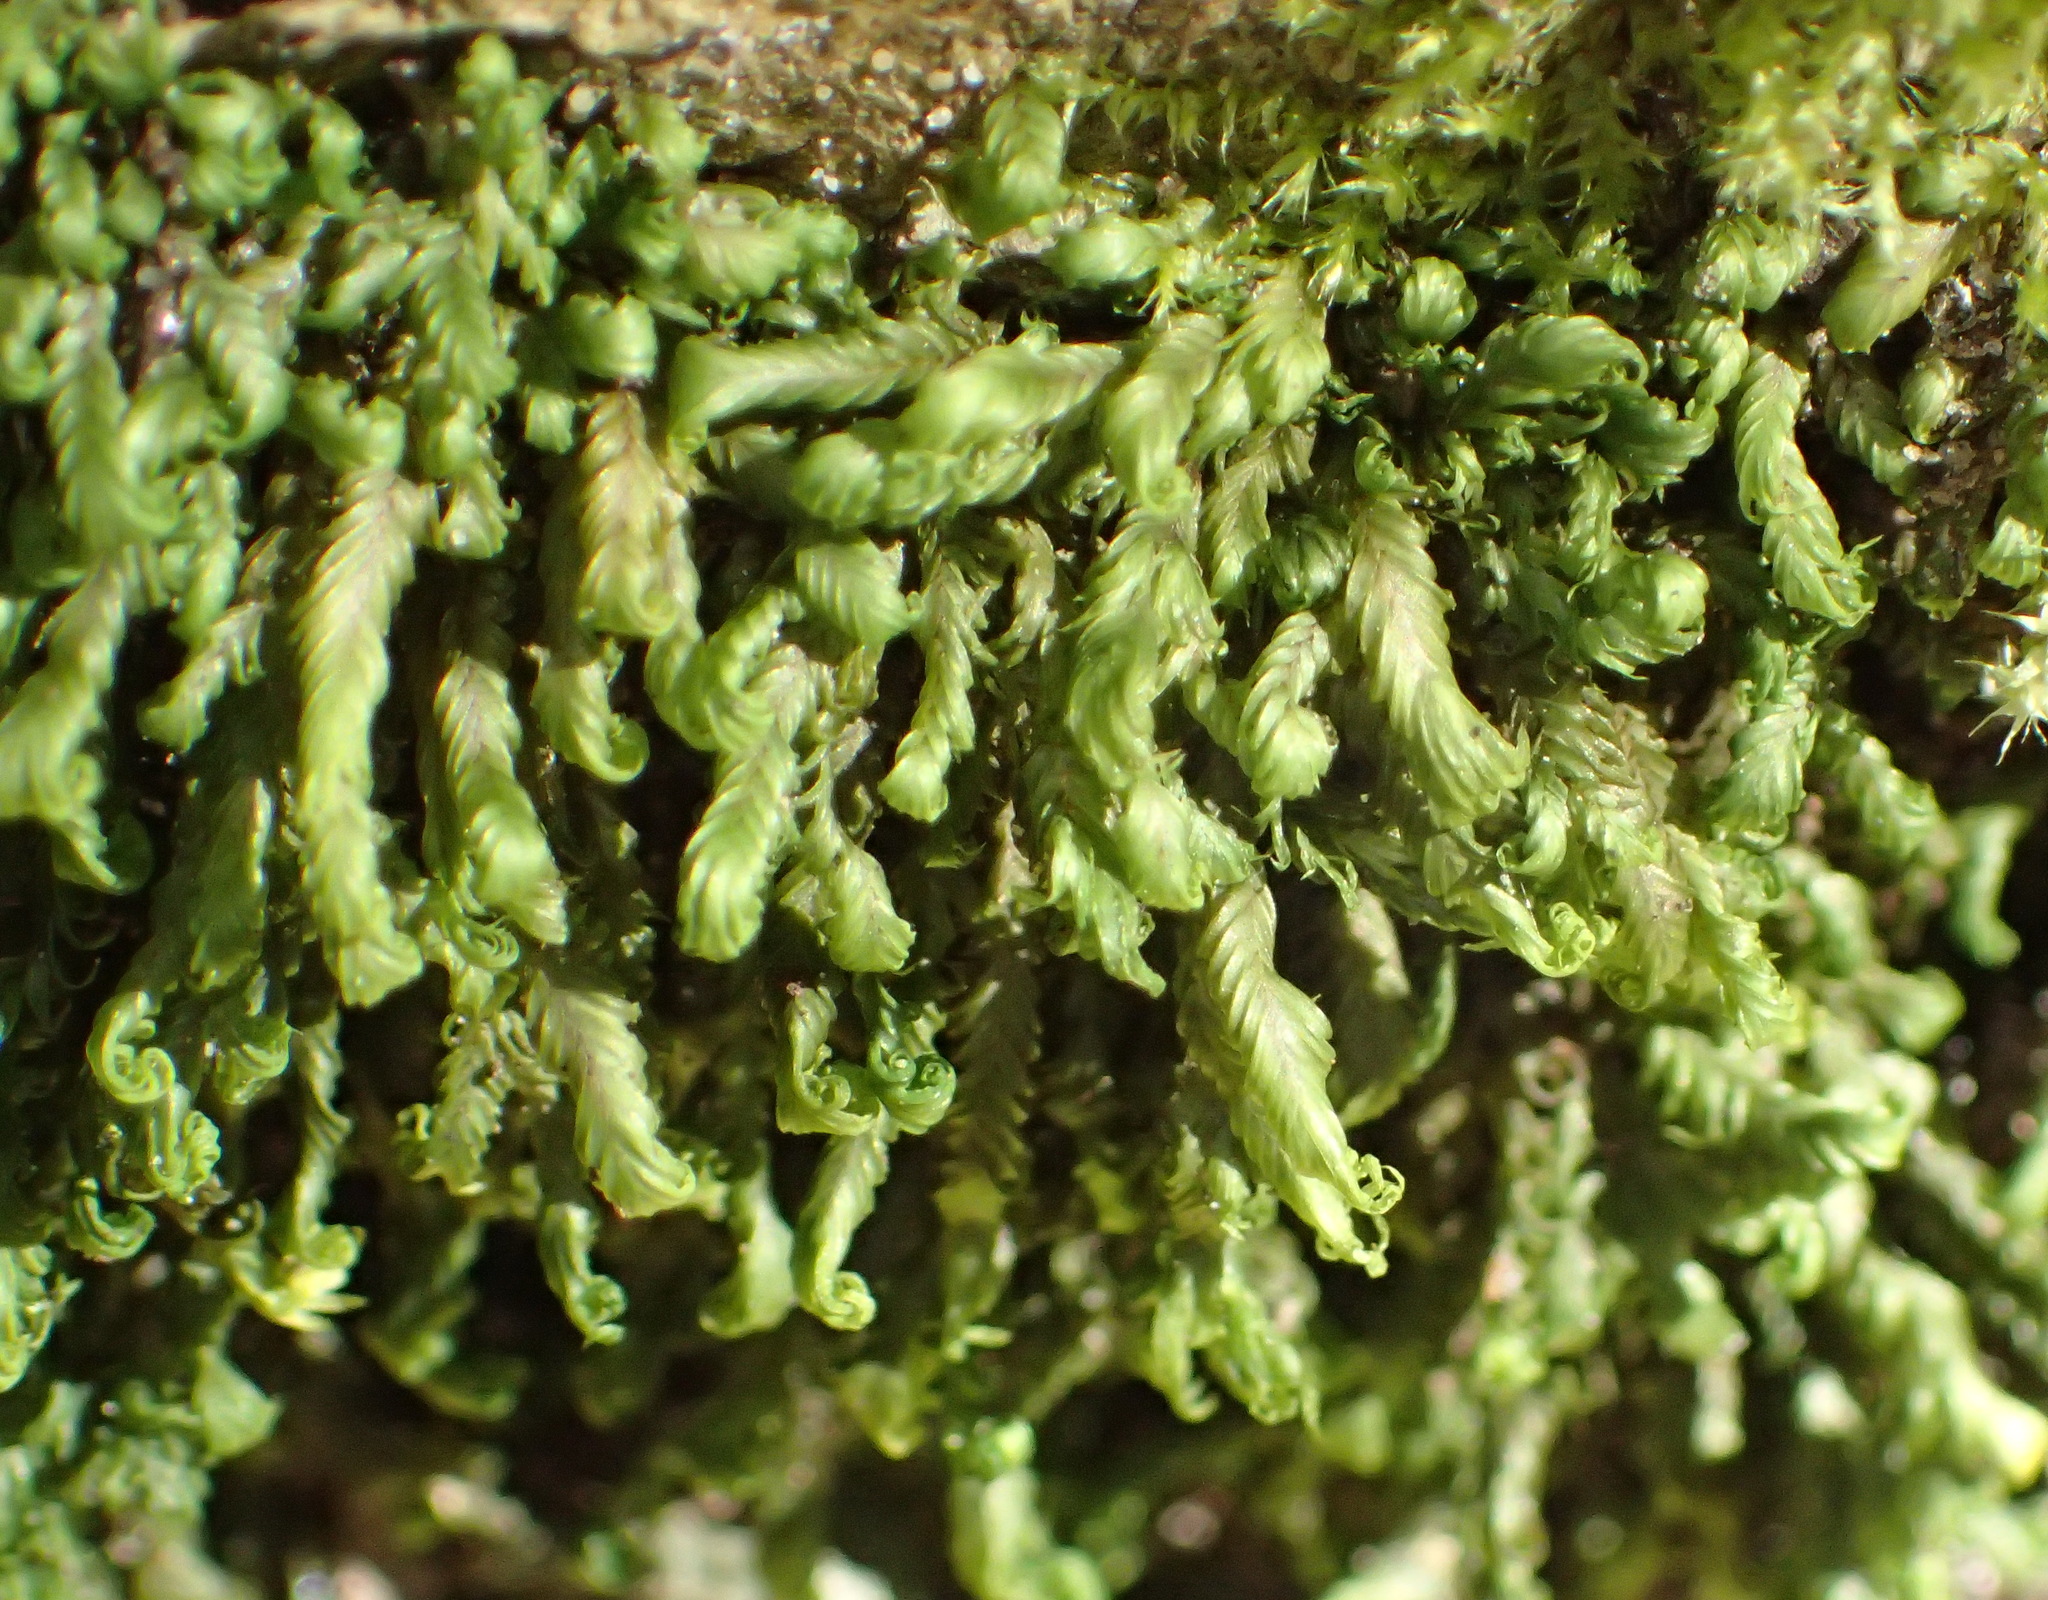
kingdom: Plantae
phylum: Bryophyta
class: Bryopsida
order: Dicranales
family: Fissidentaceae
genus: Fissidens
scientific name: Fissidens ovatus
